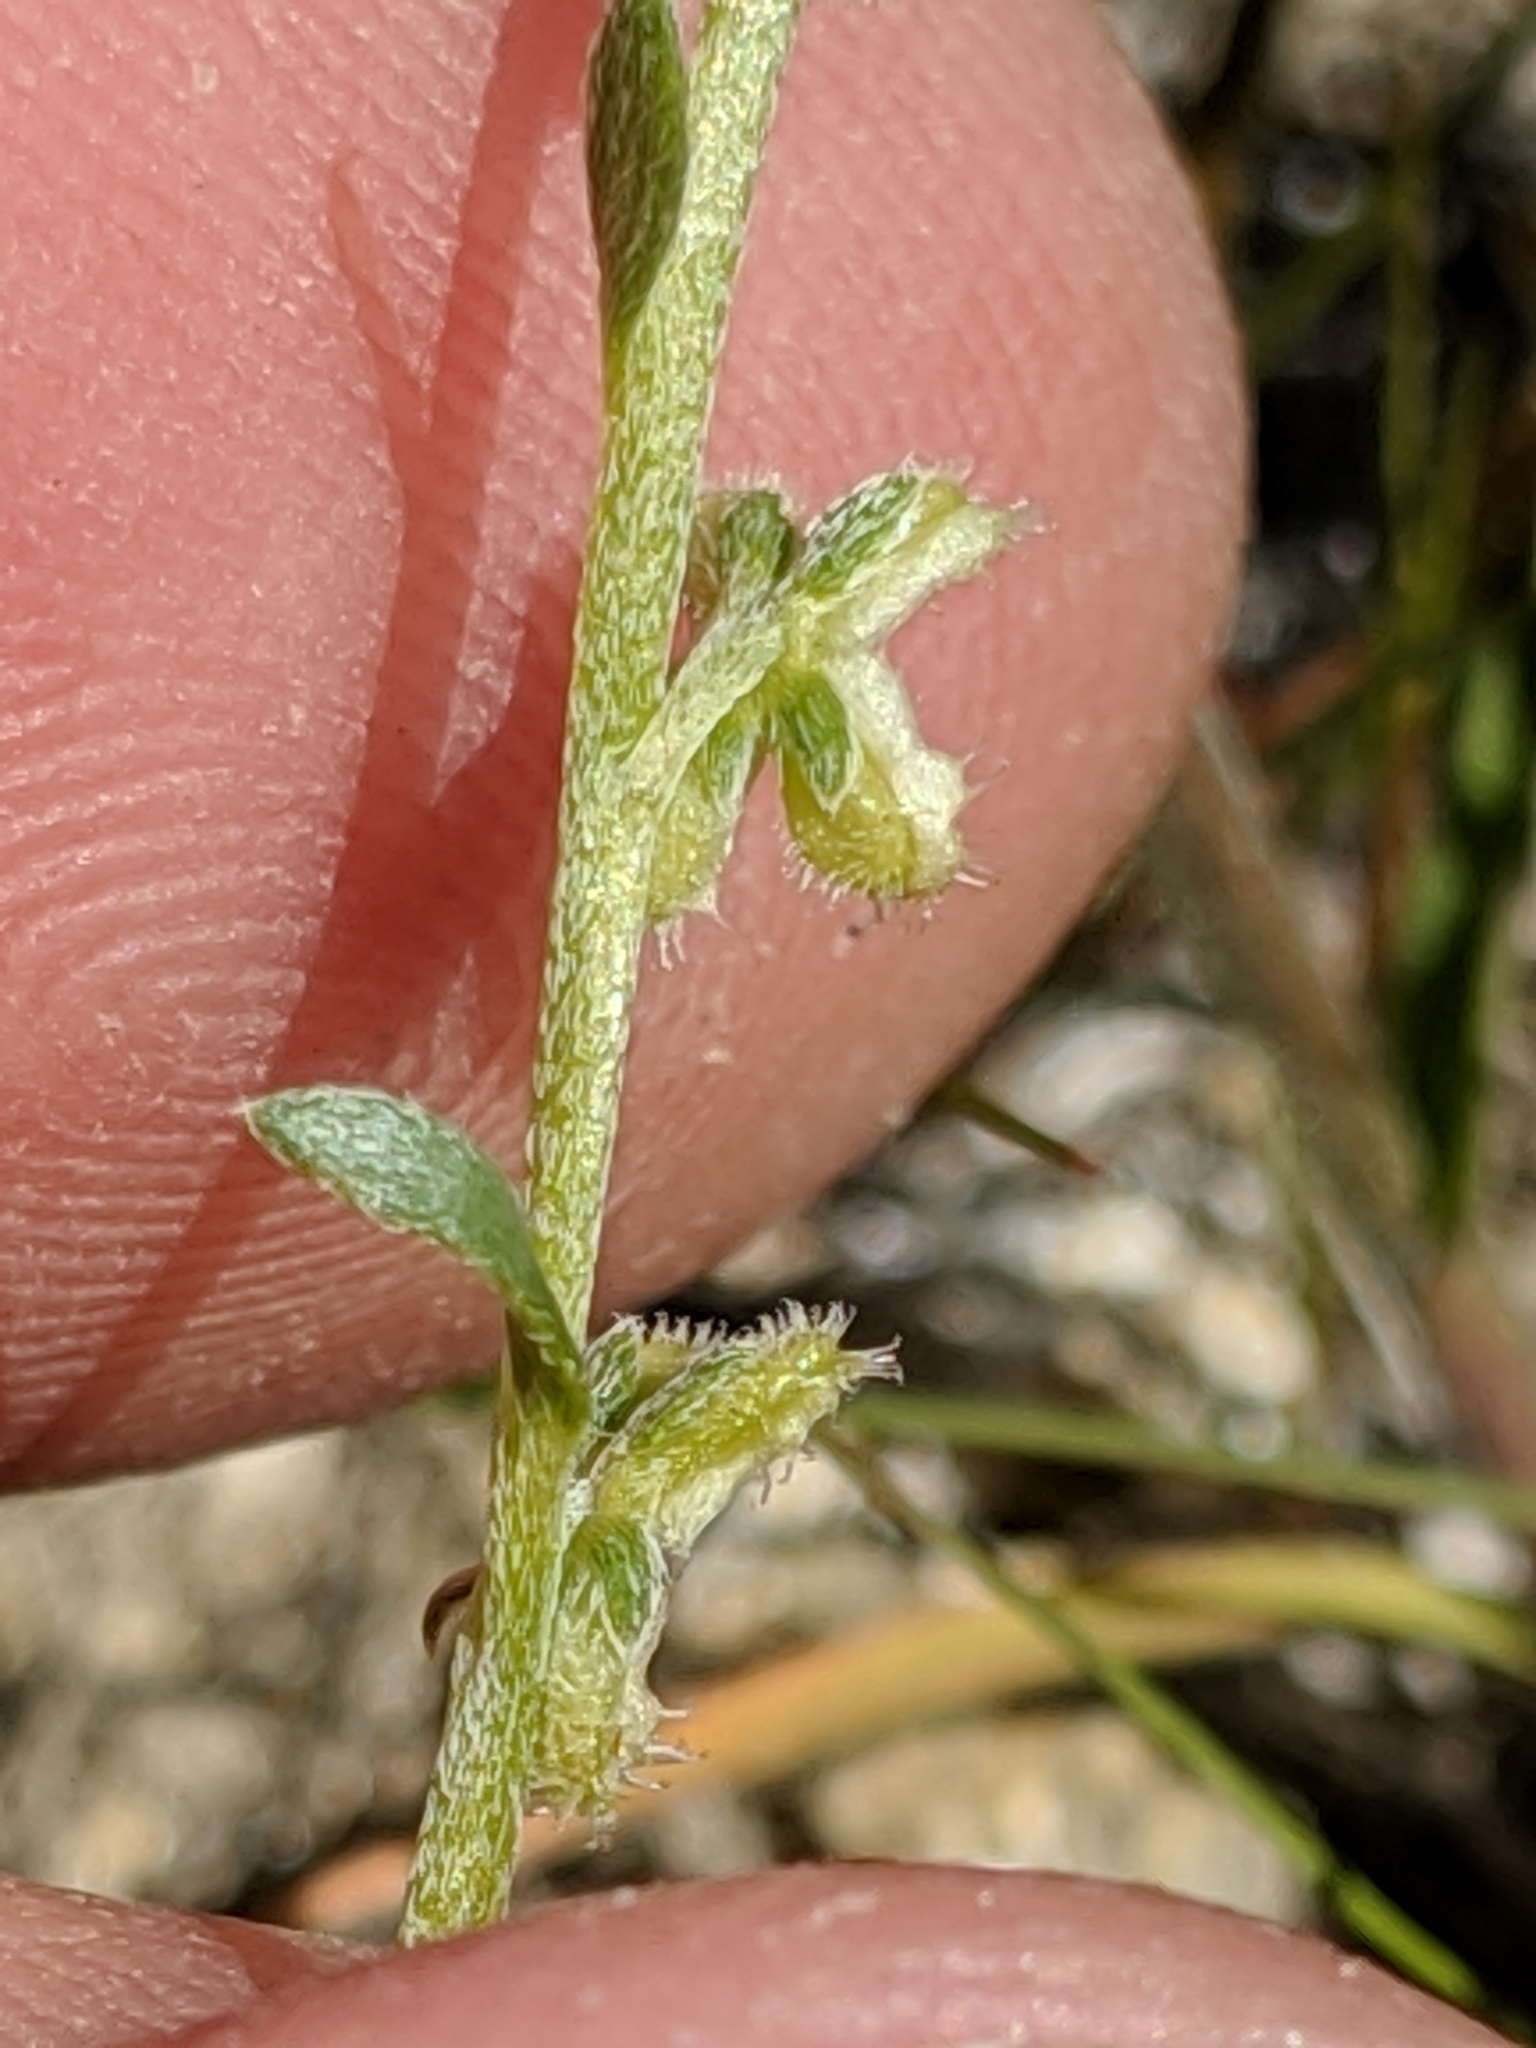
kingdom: Plantae
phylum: Tracheophyta
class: Magnoliopsida
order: Boraginales
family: Boraginaceae
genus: Pectocarya
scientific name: Pectocarya anisocarpa
